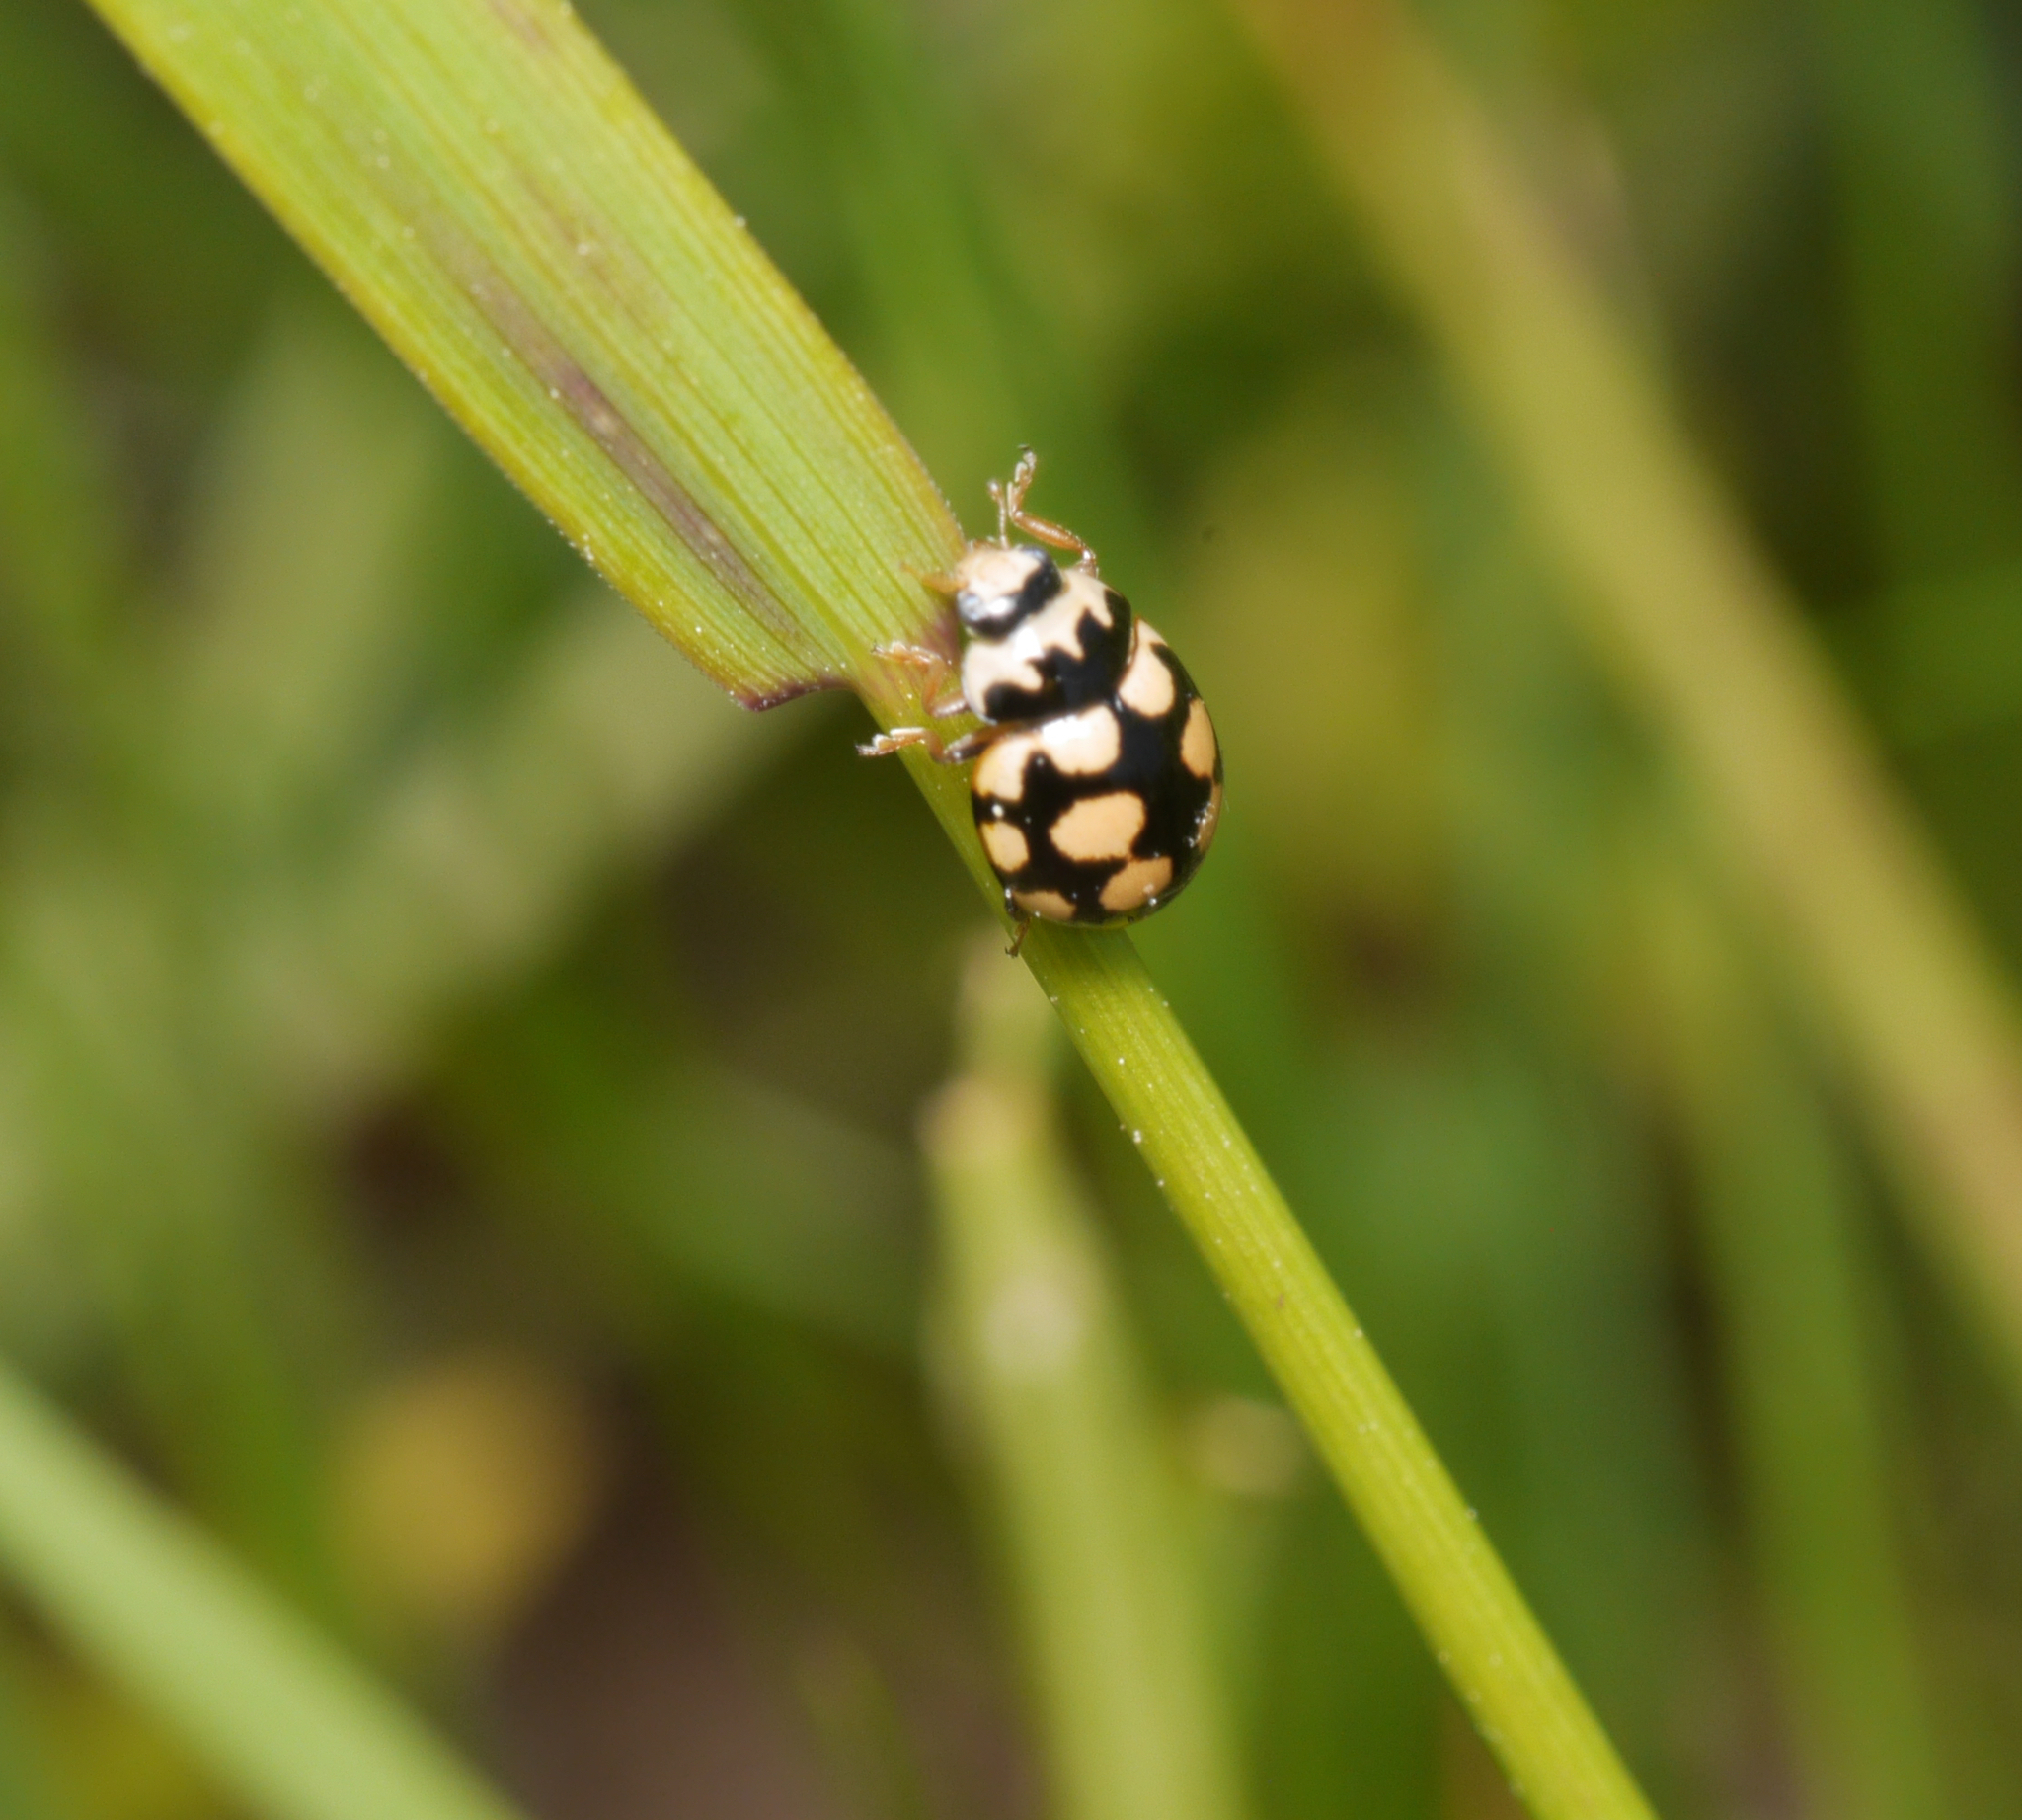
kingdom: Animalia
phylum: Arthropoda
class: Insecta
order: Coleoptera
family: Coccinellidae
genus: Coccinula
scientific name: Coccinula quatuordecimpustulata
